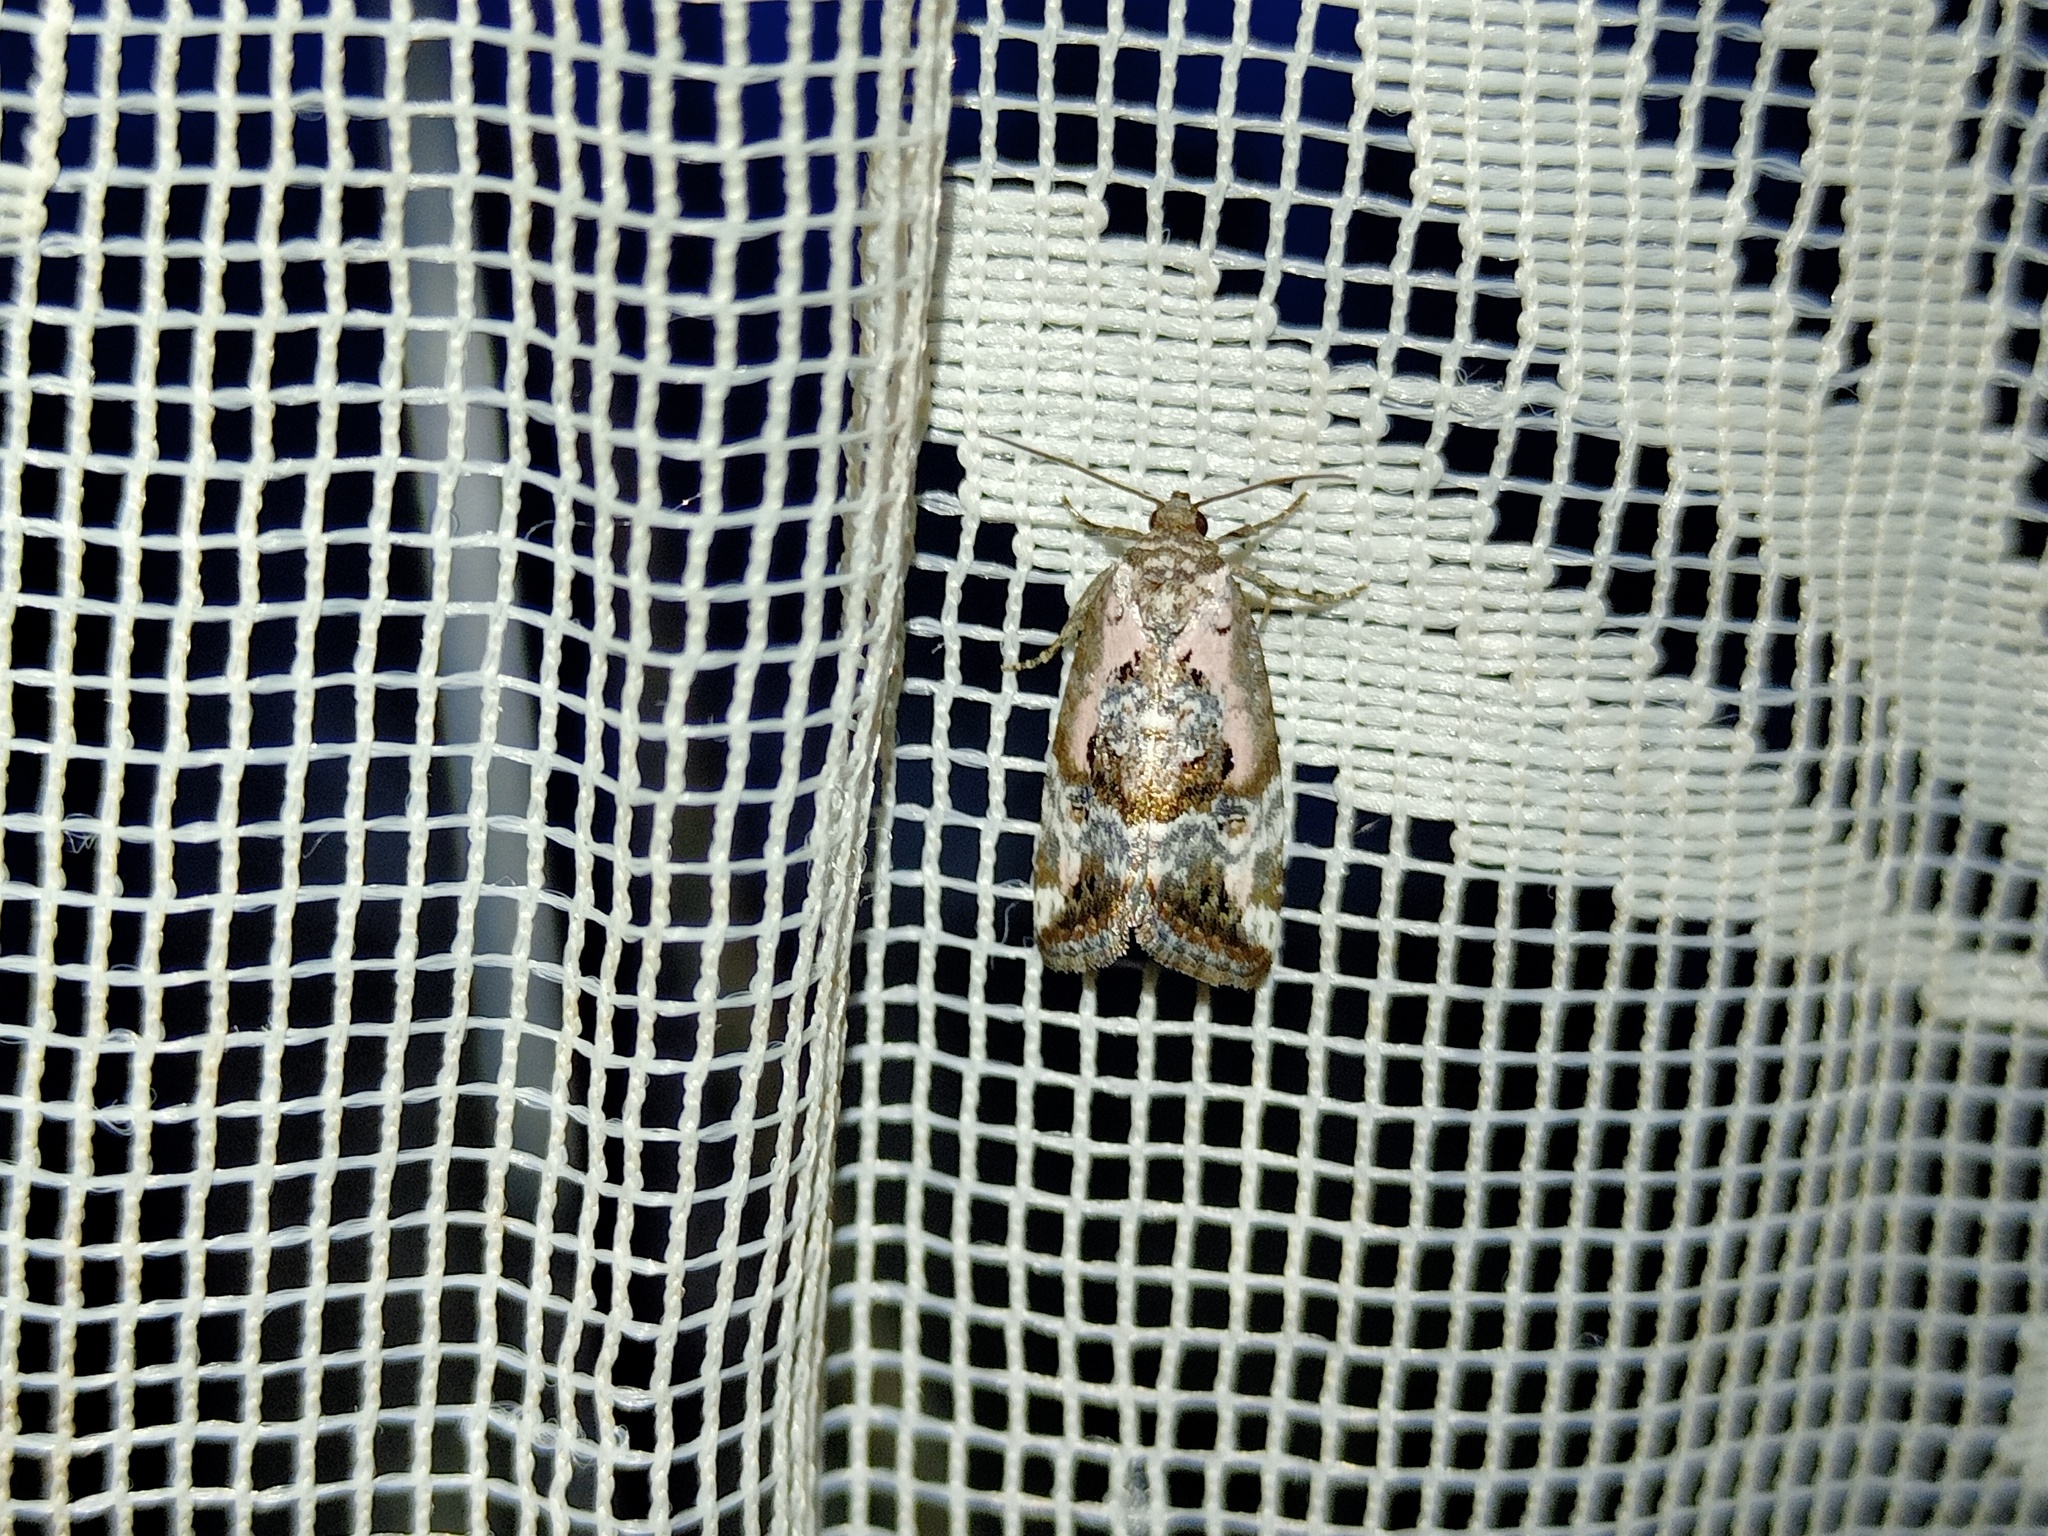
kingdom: Animalia
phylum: Arthropoda
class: Insecta
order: Lepidoptera
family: Noctuidae
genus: Elaphria
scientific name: Elaphria venustula
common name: Rosy marbled
